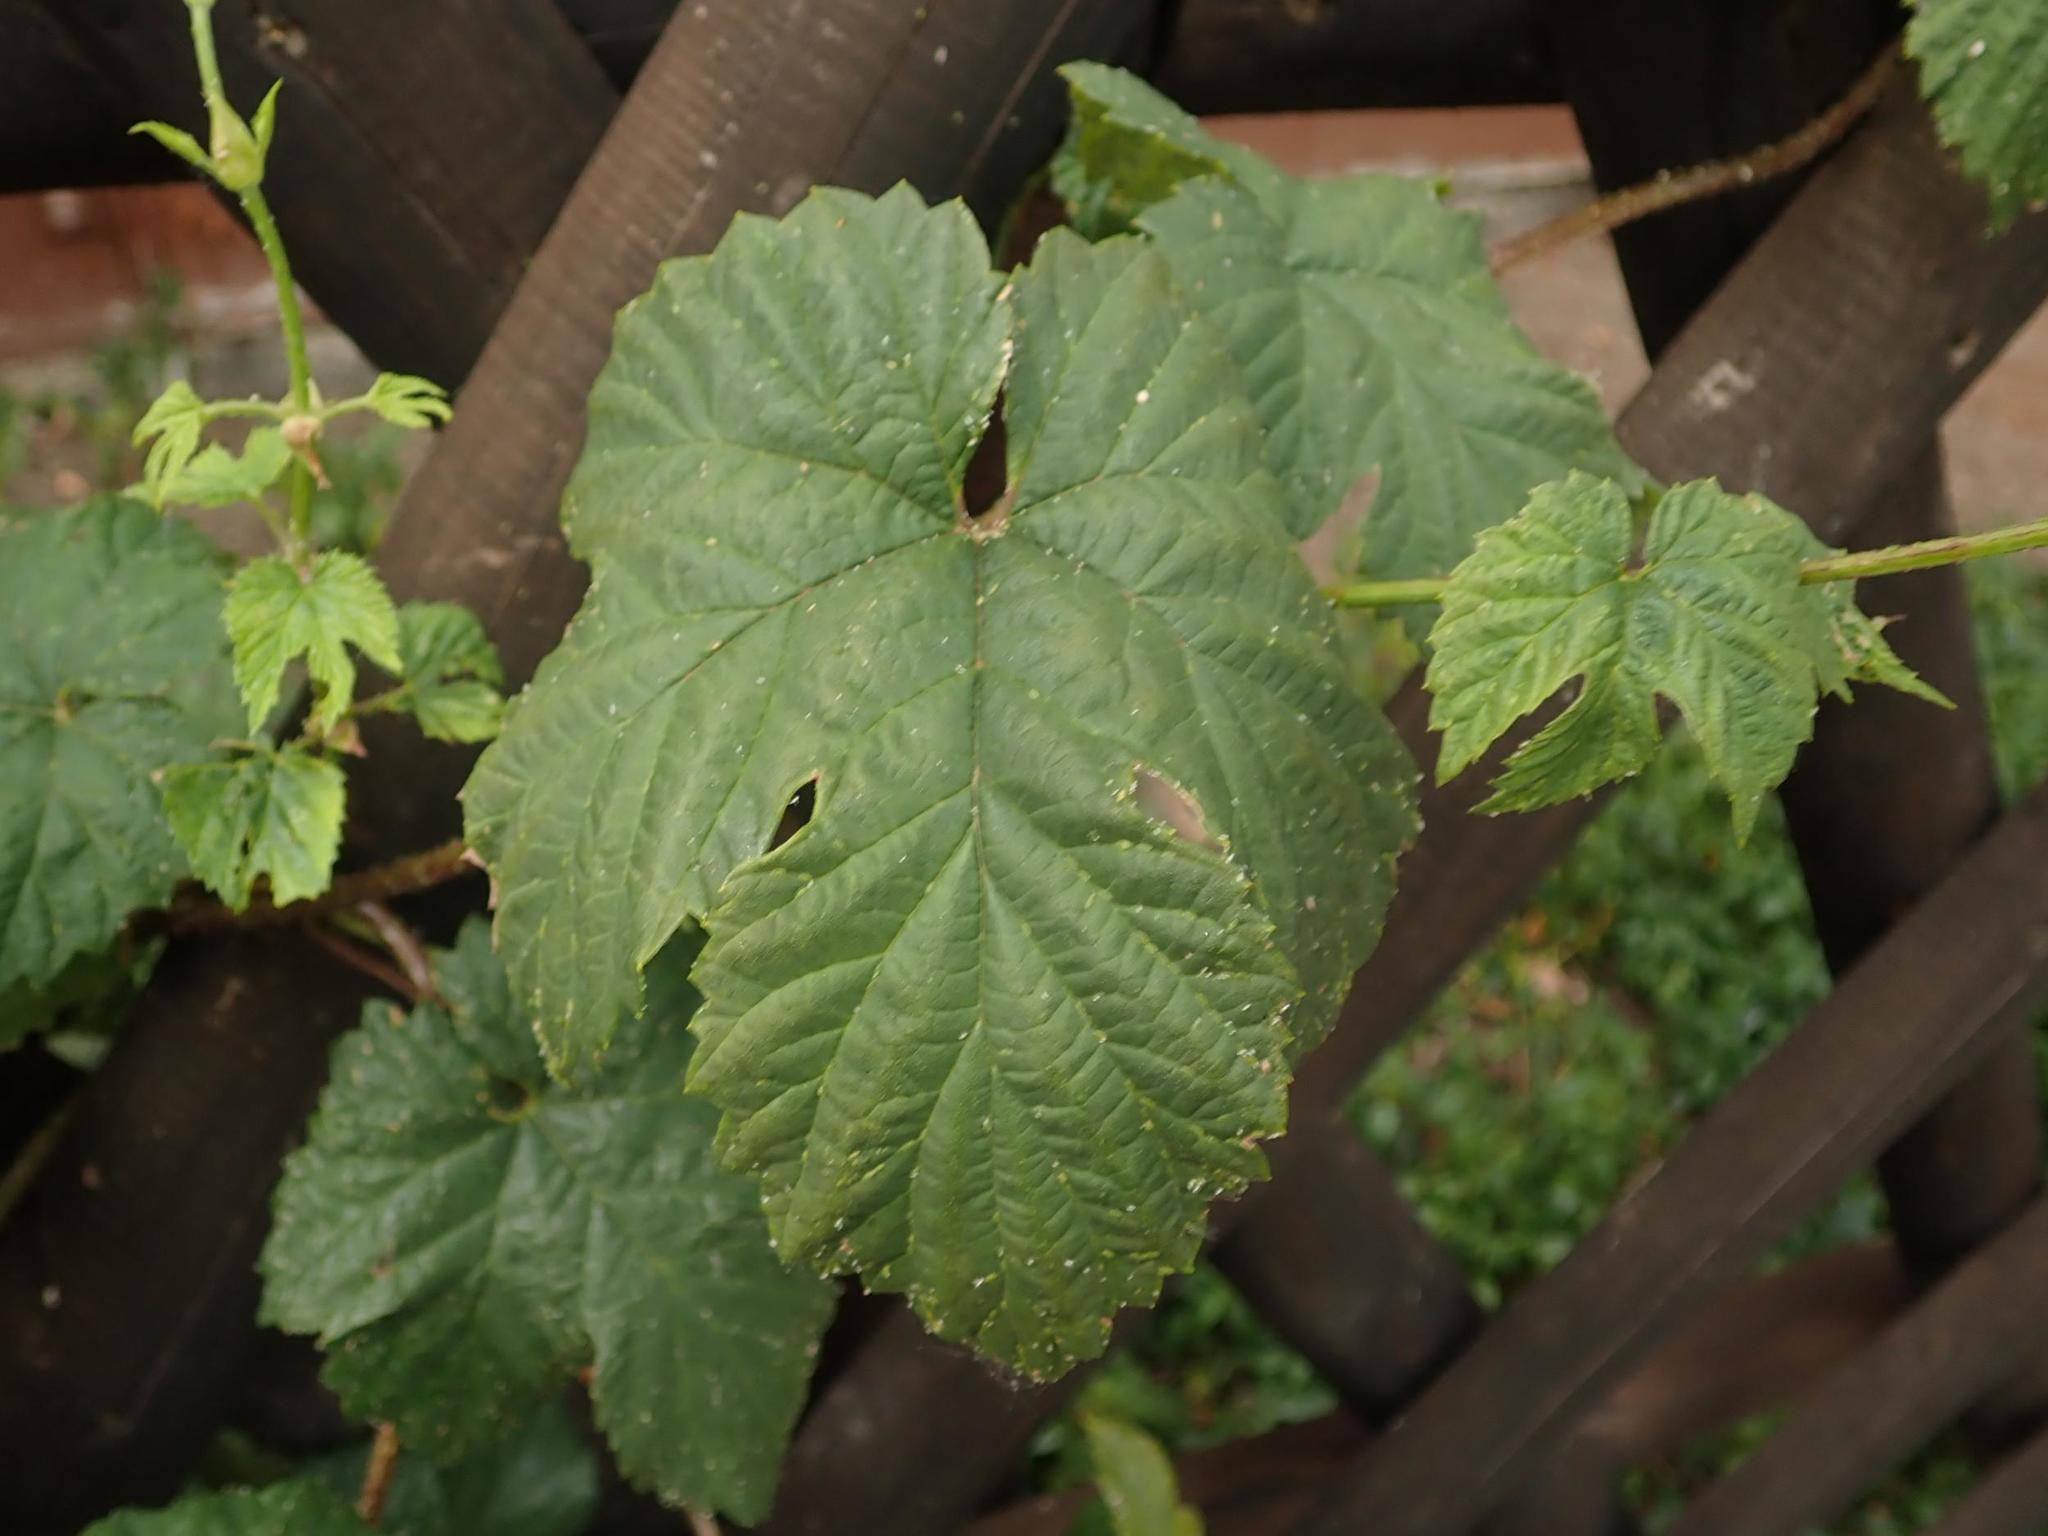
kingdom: Plantae
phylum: Tracheophyta
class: Magnoliopsida
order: Rosales
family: Cannabaceae
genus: Humulus
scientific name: Humulus lupulus
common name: Hop
